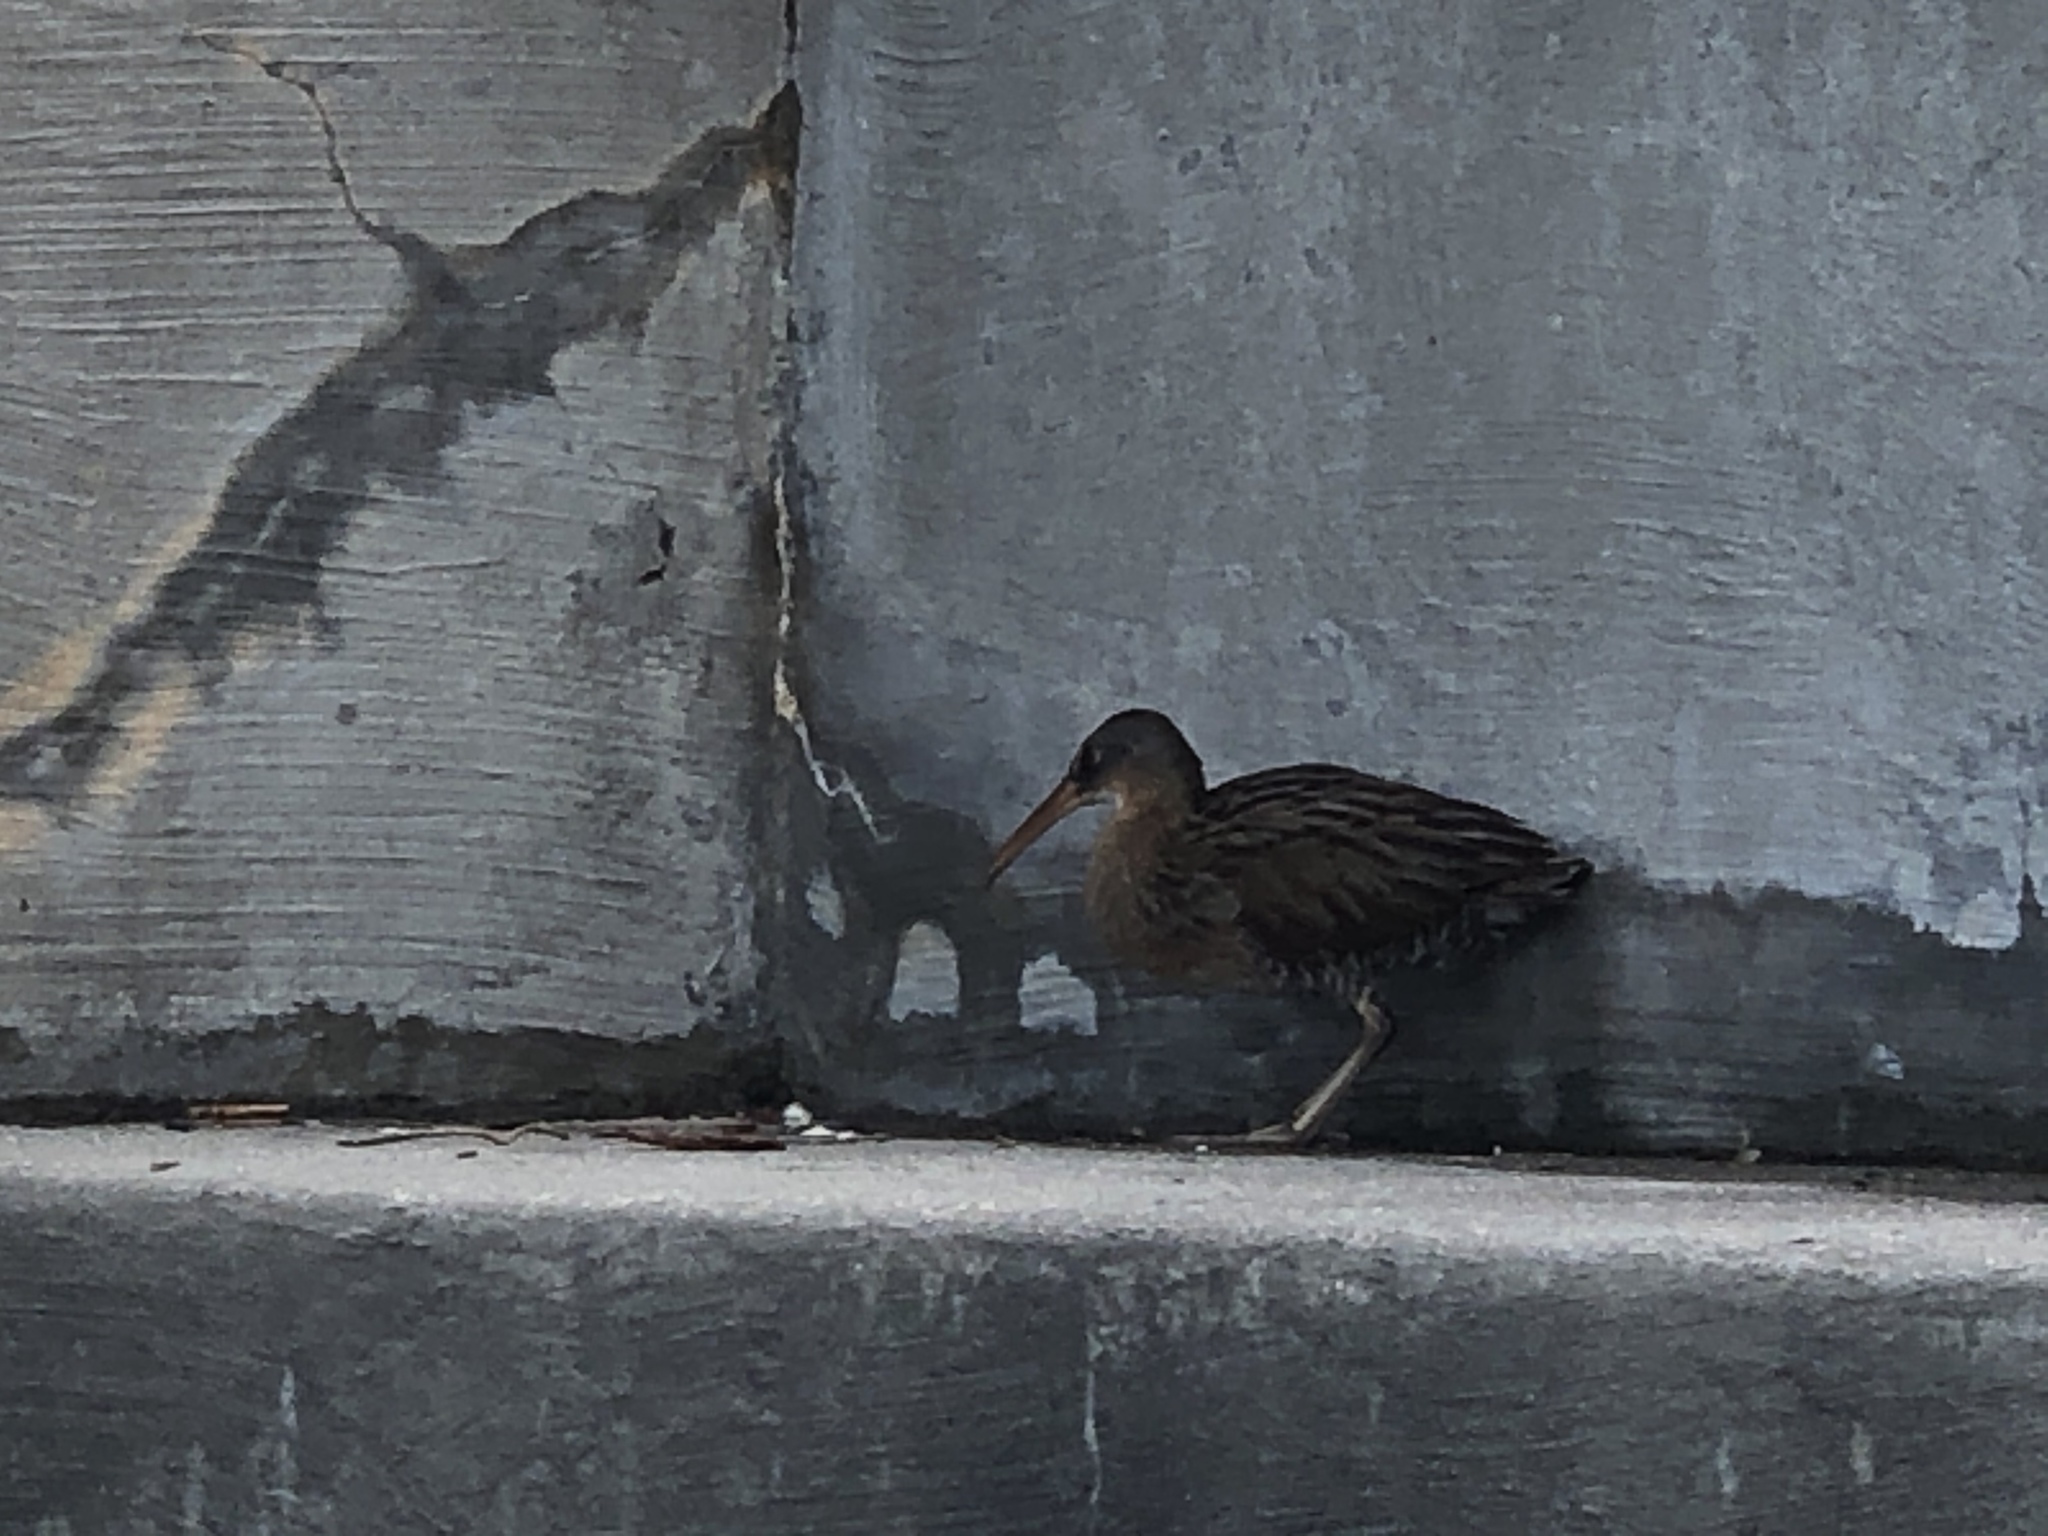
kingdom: Animalia
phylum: Chordata
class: Aves
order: Gruiformes
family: Rallidae
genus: Rallus
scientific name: Rallus crepitans
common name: Clapper rail
